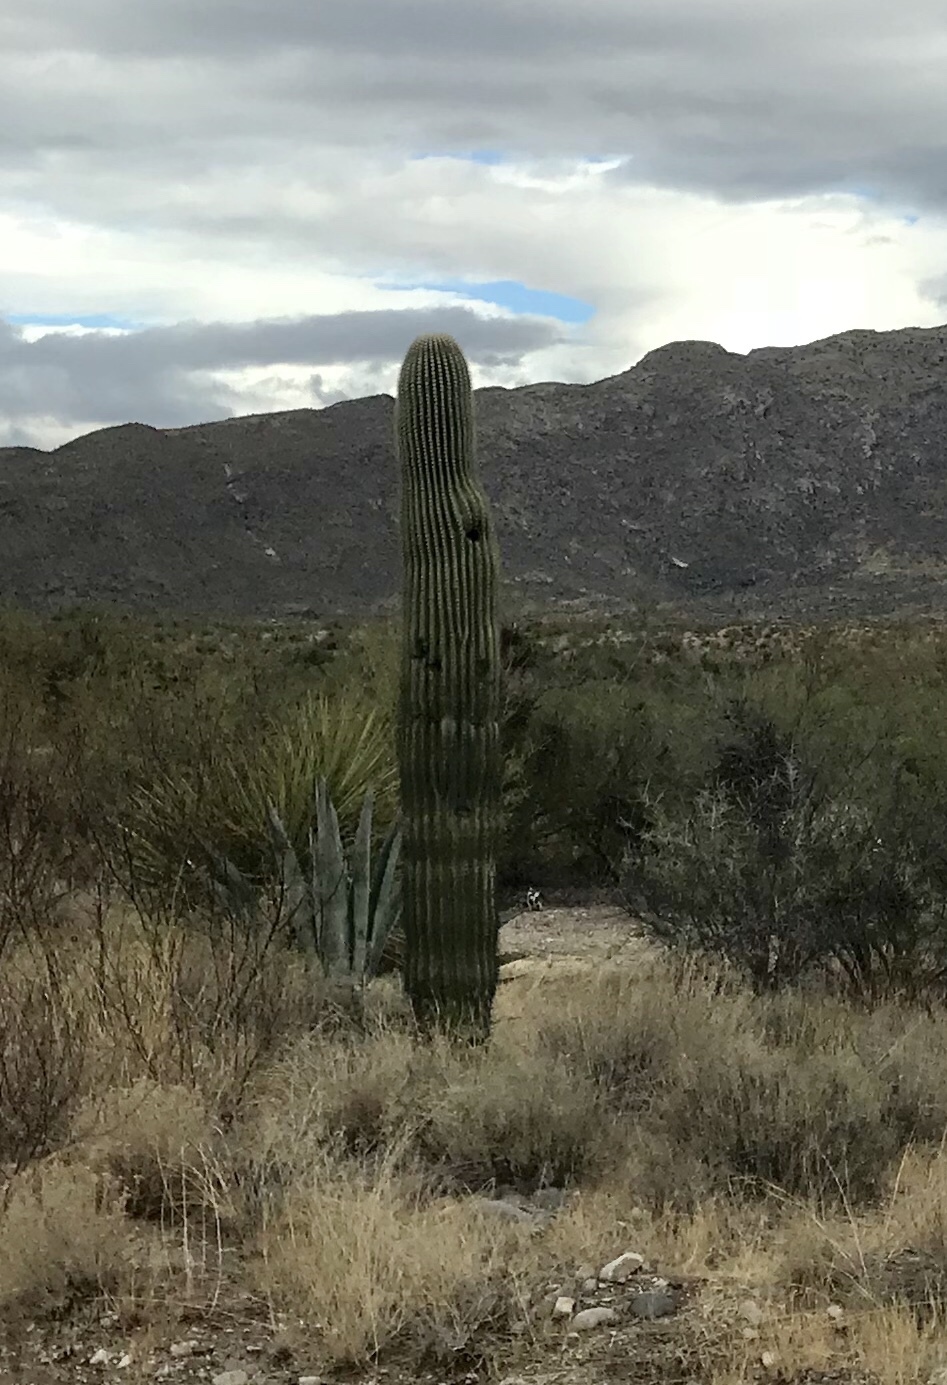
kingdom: Plantae
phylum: Tracheophyta
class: Magnoliopsida
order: Caryophyllales
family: Cactaceae
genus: Carnegiea
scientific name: Carnegiea gigantea
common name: Saguaro
